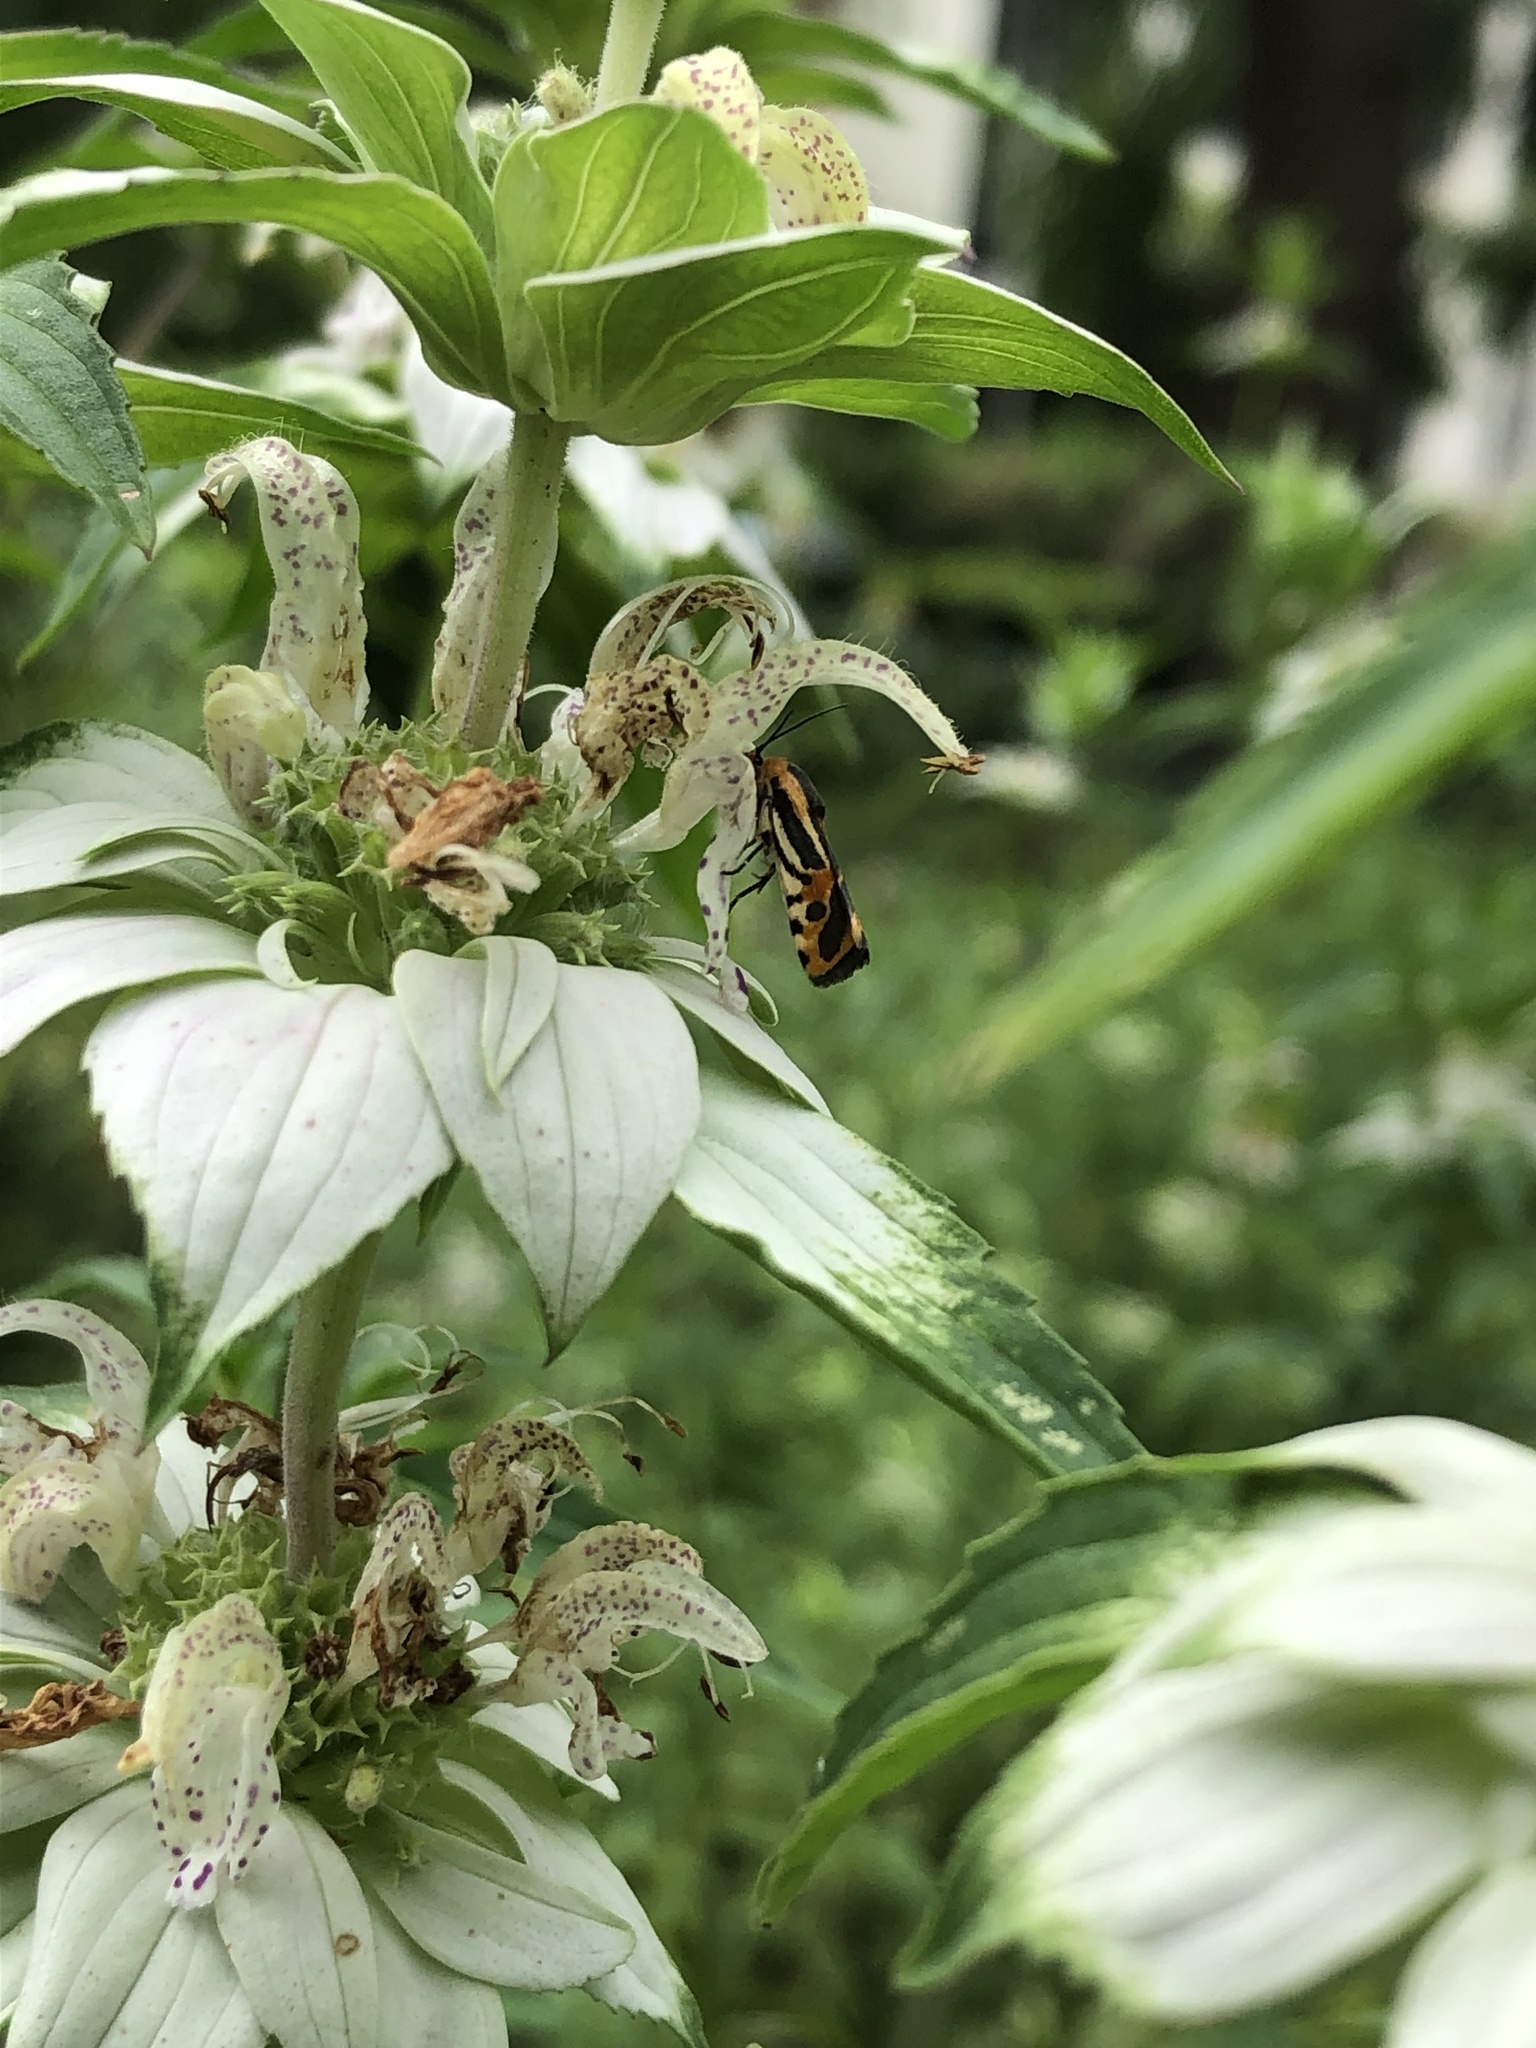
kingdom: Animalia
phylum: Arthropoda
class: Insecta
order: Lepidoptera
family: Noctuidae
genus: Acontia
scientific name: Acontia onagrus
